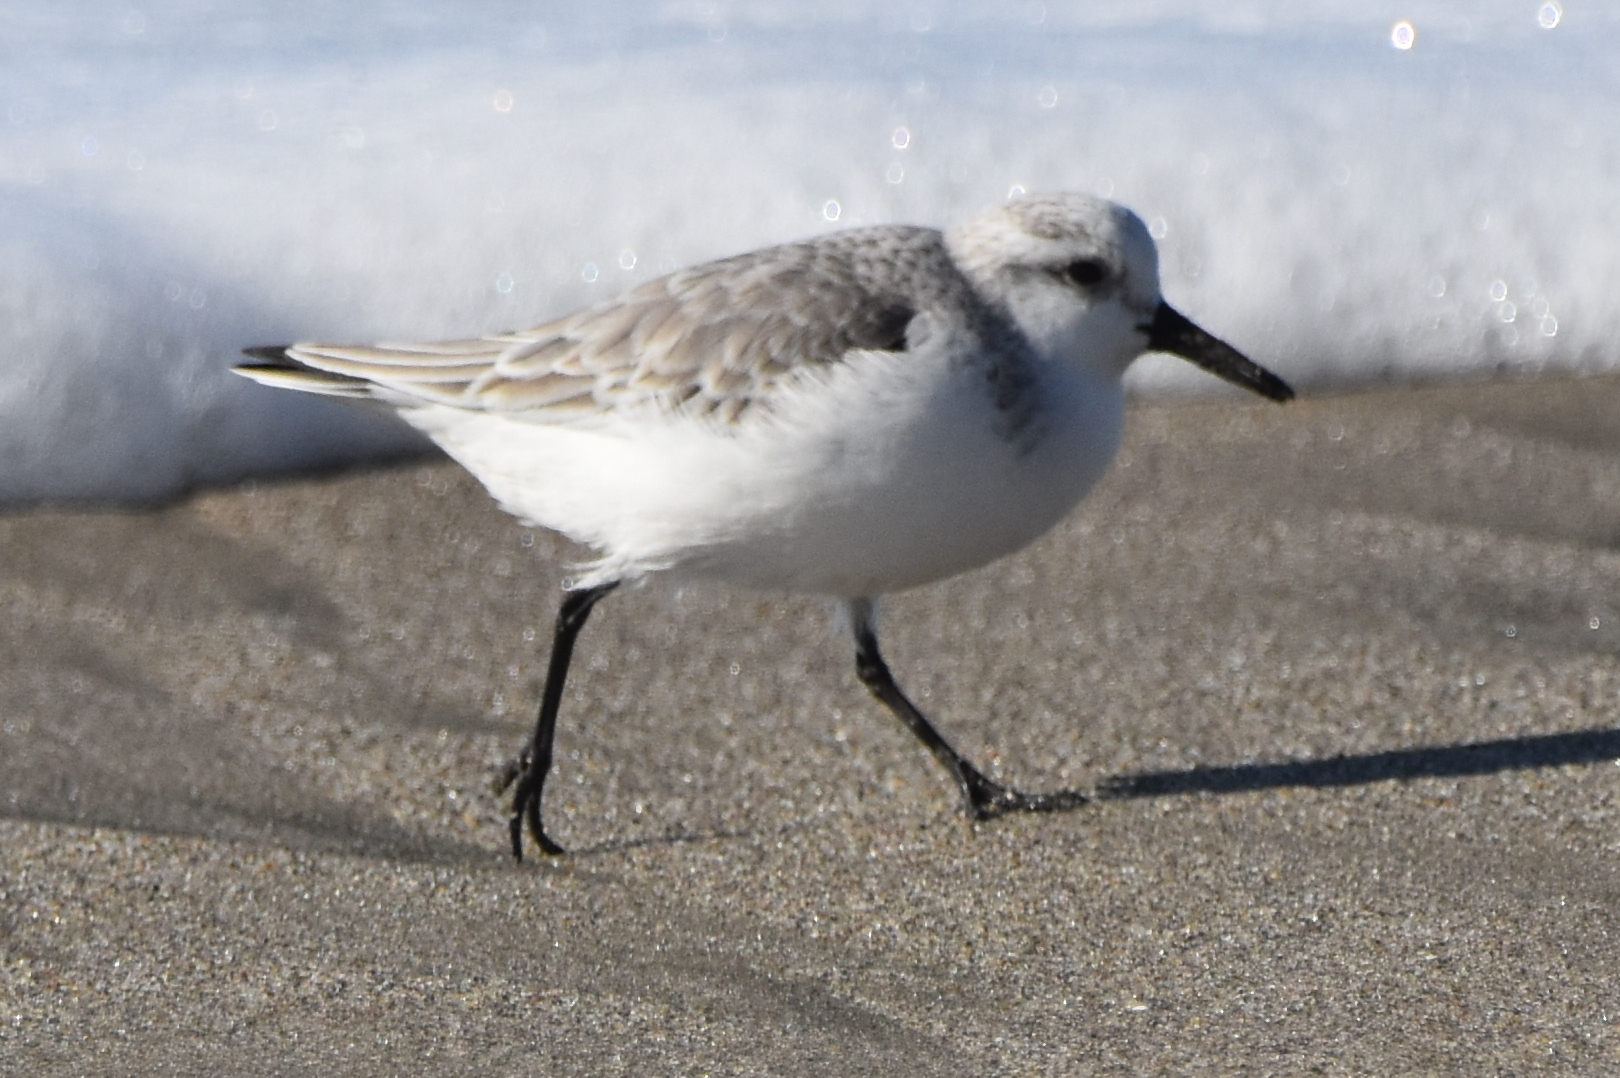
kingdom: Animalia
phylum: Chordata
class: Aves
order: Charadriiformes
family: Scolopacidae
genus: Calidris
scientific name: Calidris alba
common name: Sanderling
